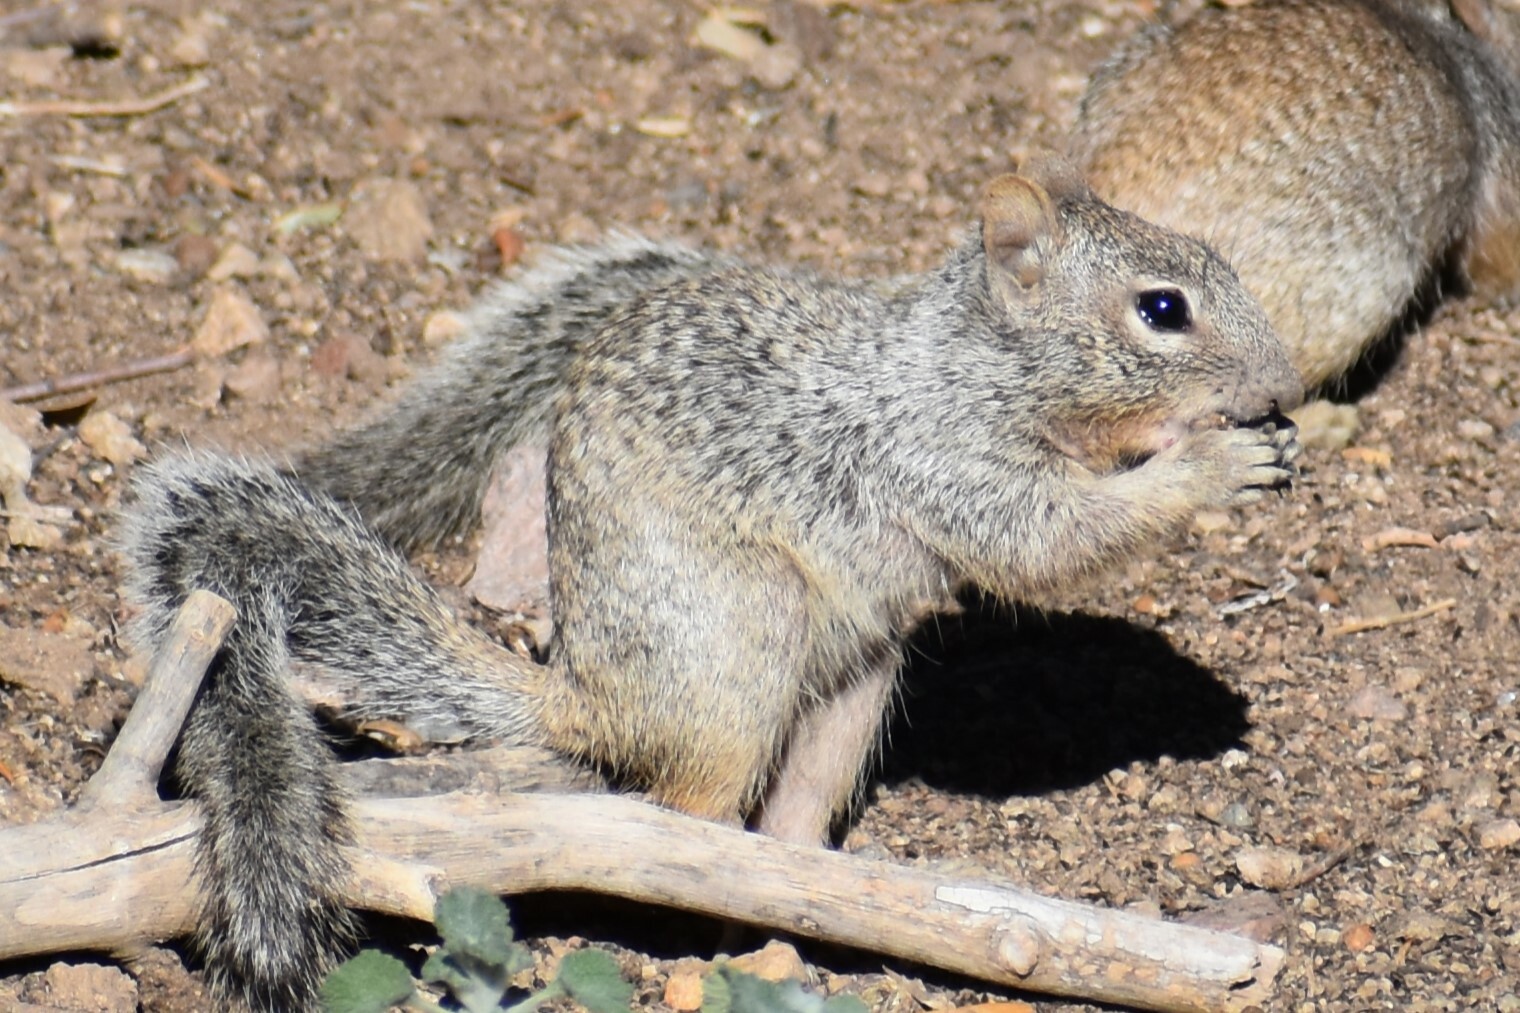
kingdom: Animalia
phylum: Chordata
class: Mammalia
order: Rodentia
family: Sciuridae
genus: Otospermophilus
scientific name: Otospermophilus variegatus
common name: Rock squirrel
